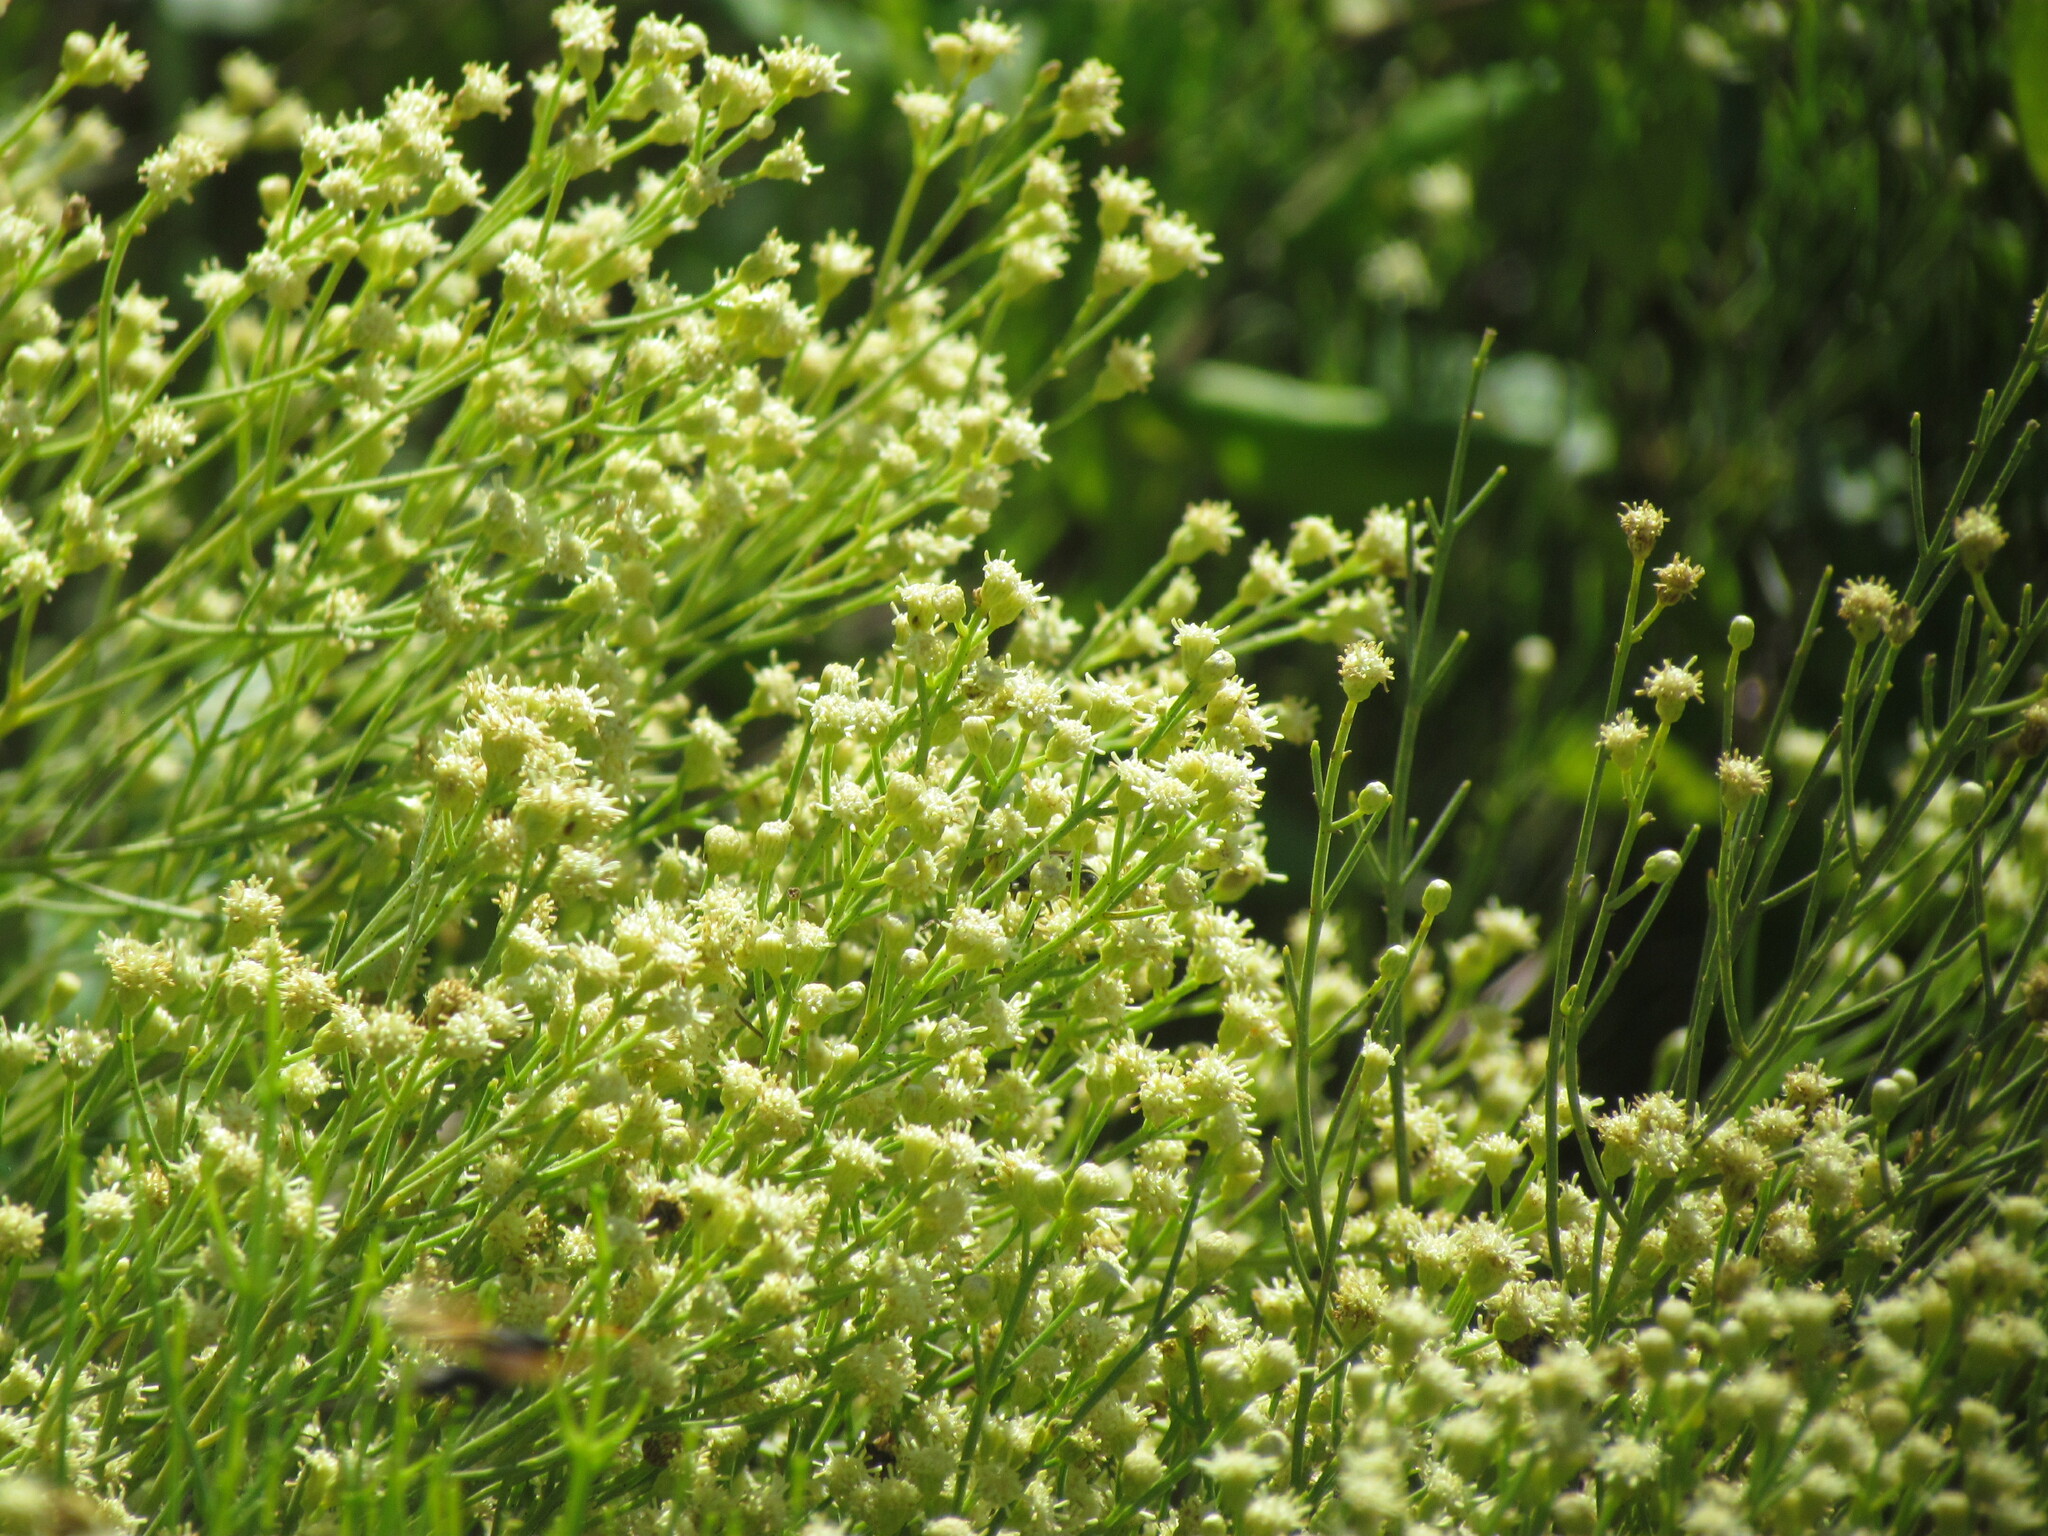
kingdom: Plantae
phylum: Tracheophyta
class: Magnoliopsida
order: Asterales
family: Asteraceae
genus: Baccharis
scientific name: Baccharis notosergila
